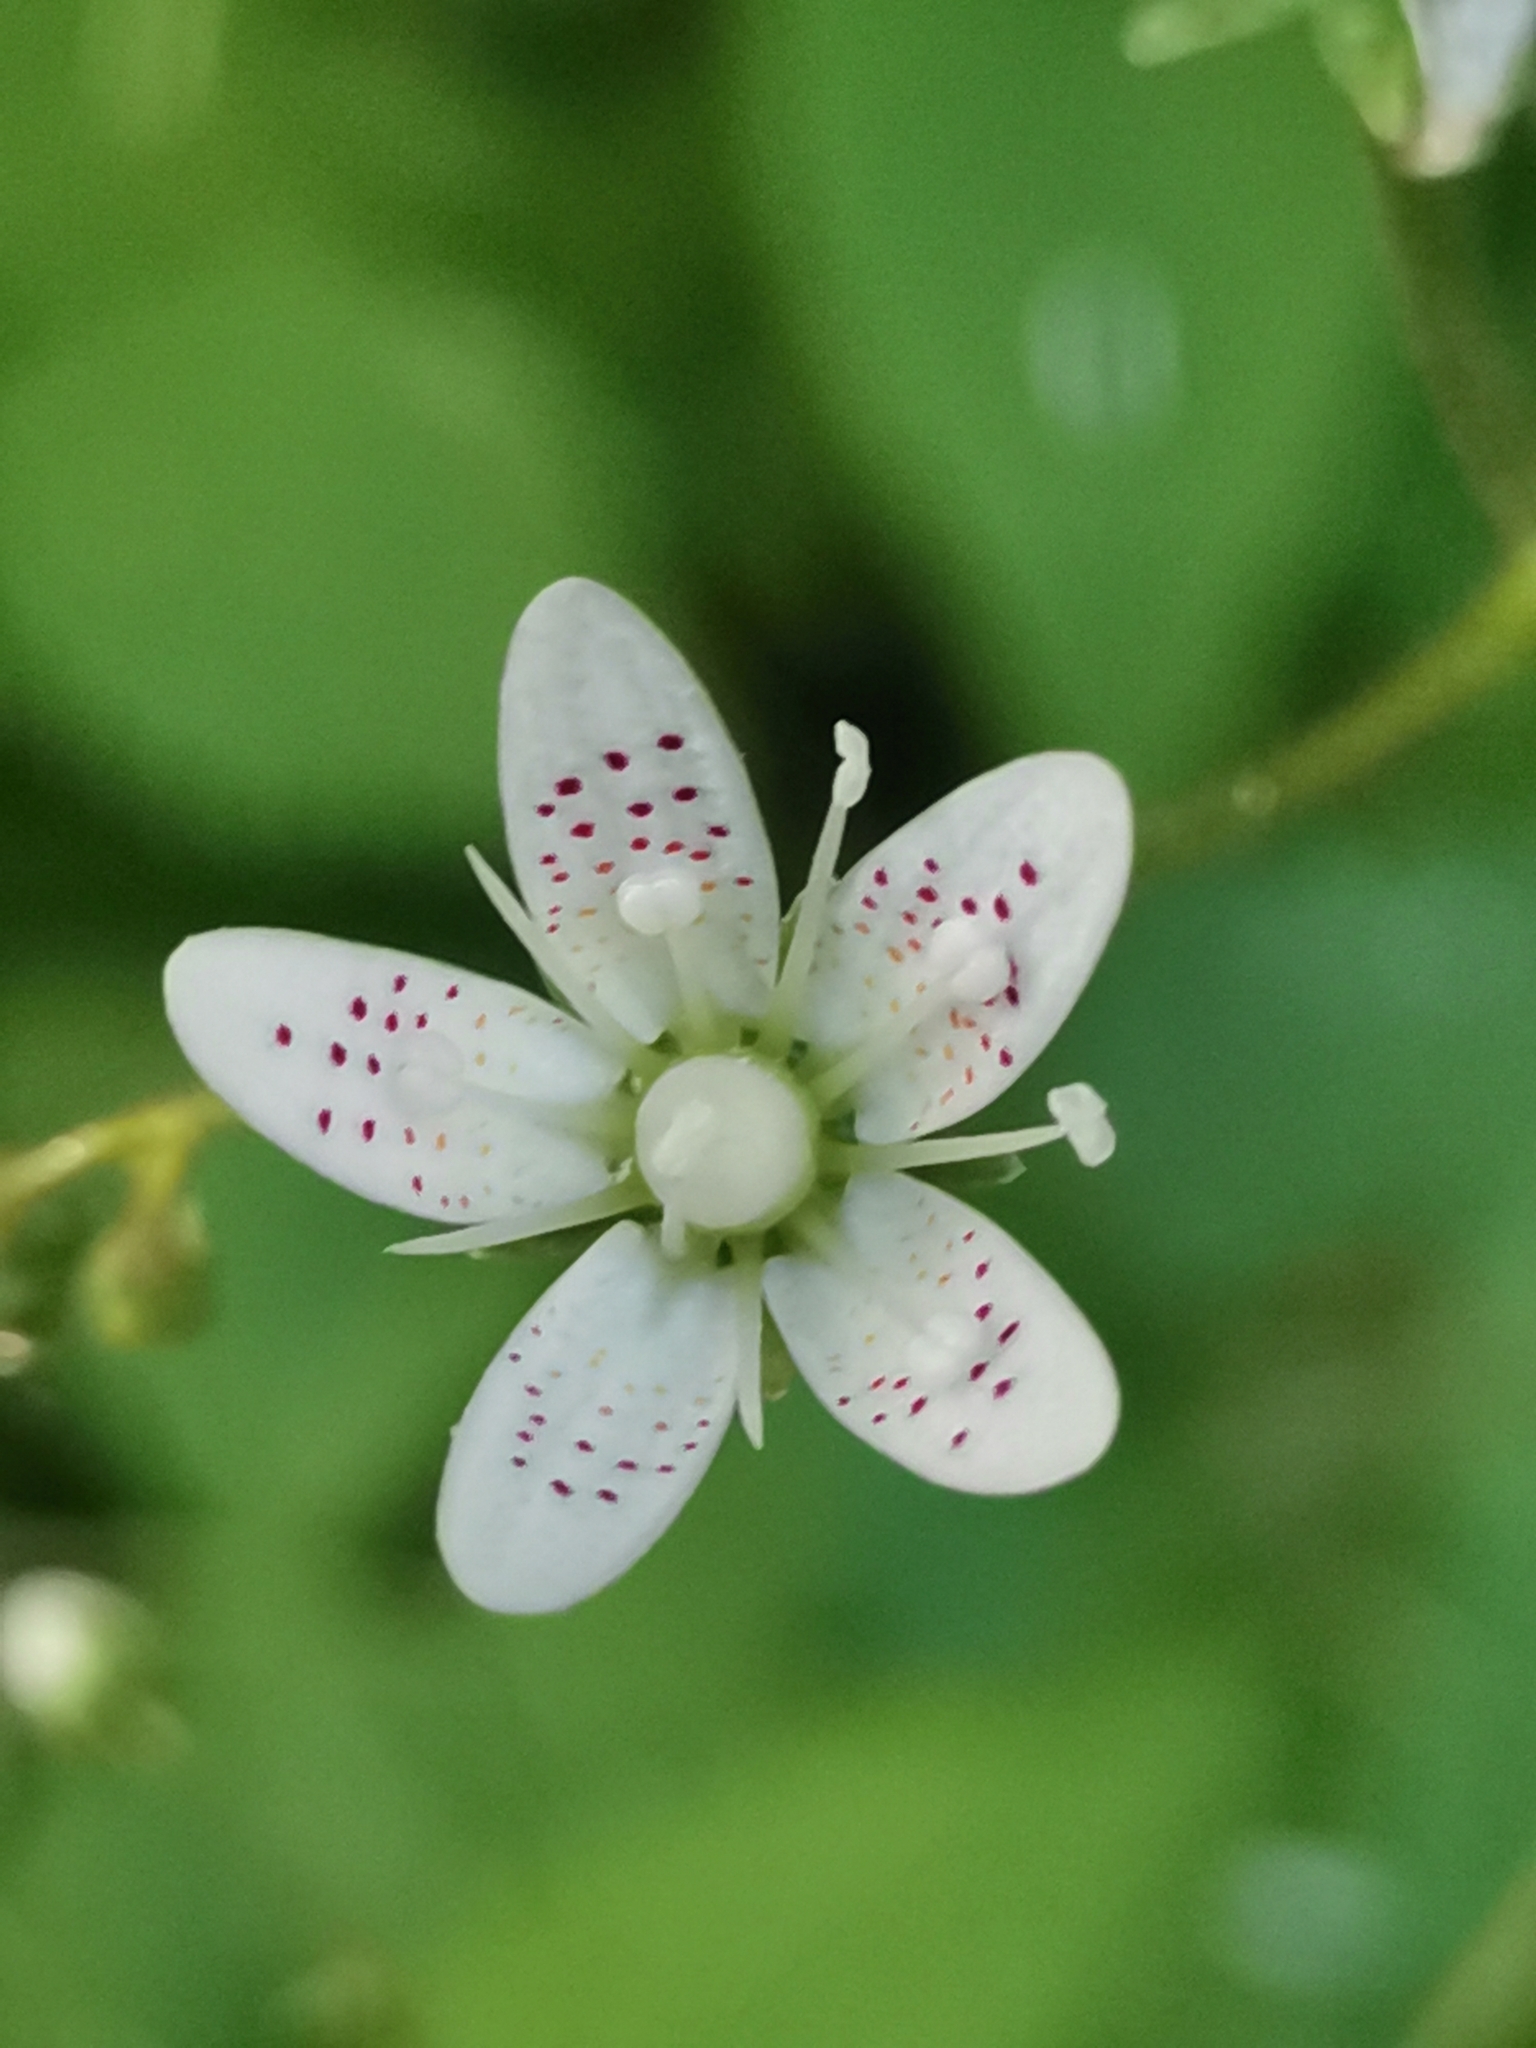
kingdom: Plantae
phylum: Tracheophyta
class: Magnoliopsida
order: Saxifragales
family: Saxifragaceae
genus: Saxifraga
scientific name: Saxifraga rotundifolia
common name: Round-leaved saxifrage
